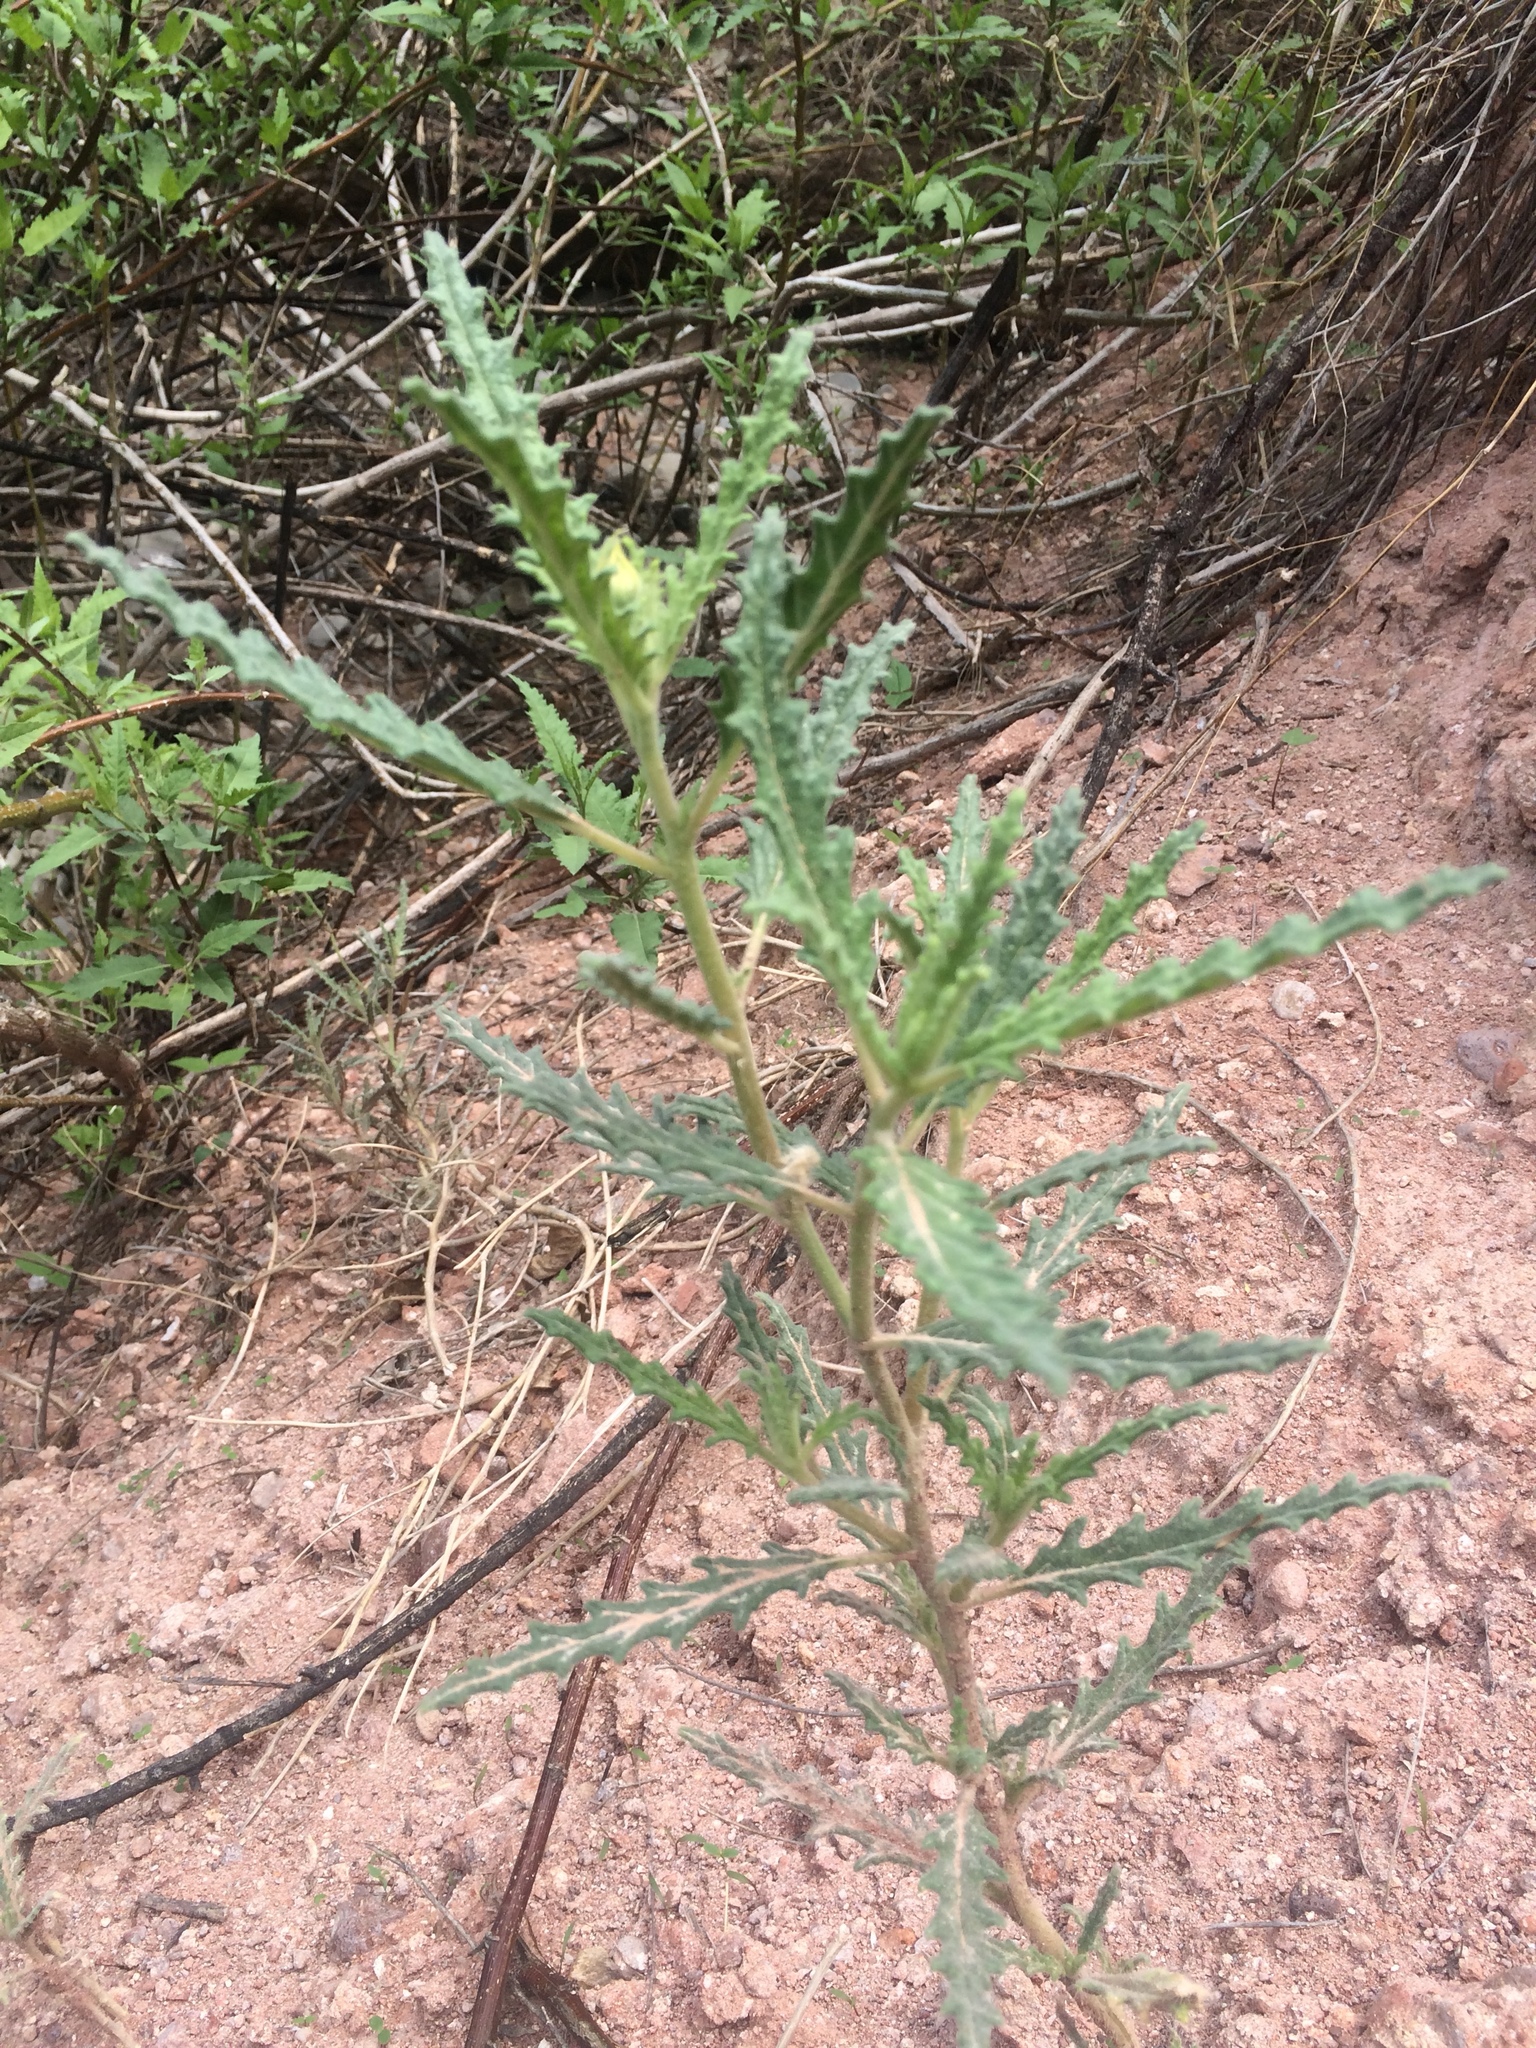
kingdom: Plantae
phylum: Tracheophyta
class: Magnoliopsida
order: Cornales
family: Loasaceae
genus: Cevallia
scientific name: Cevallia sinuata
